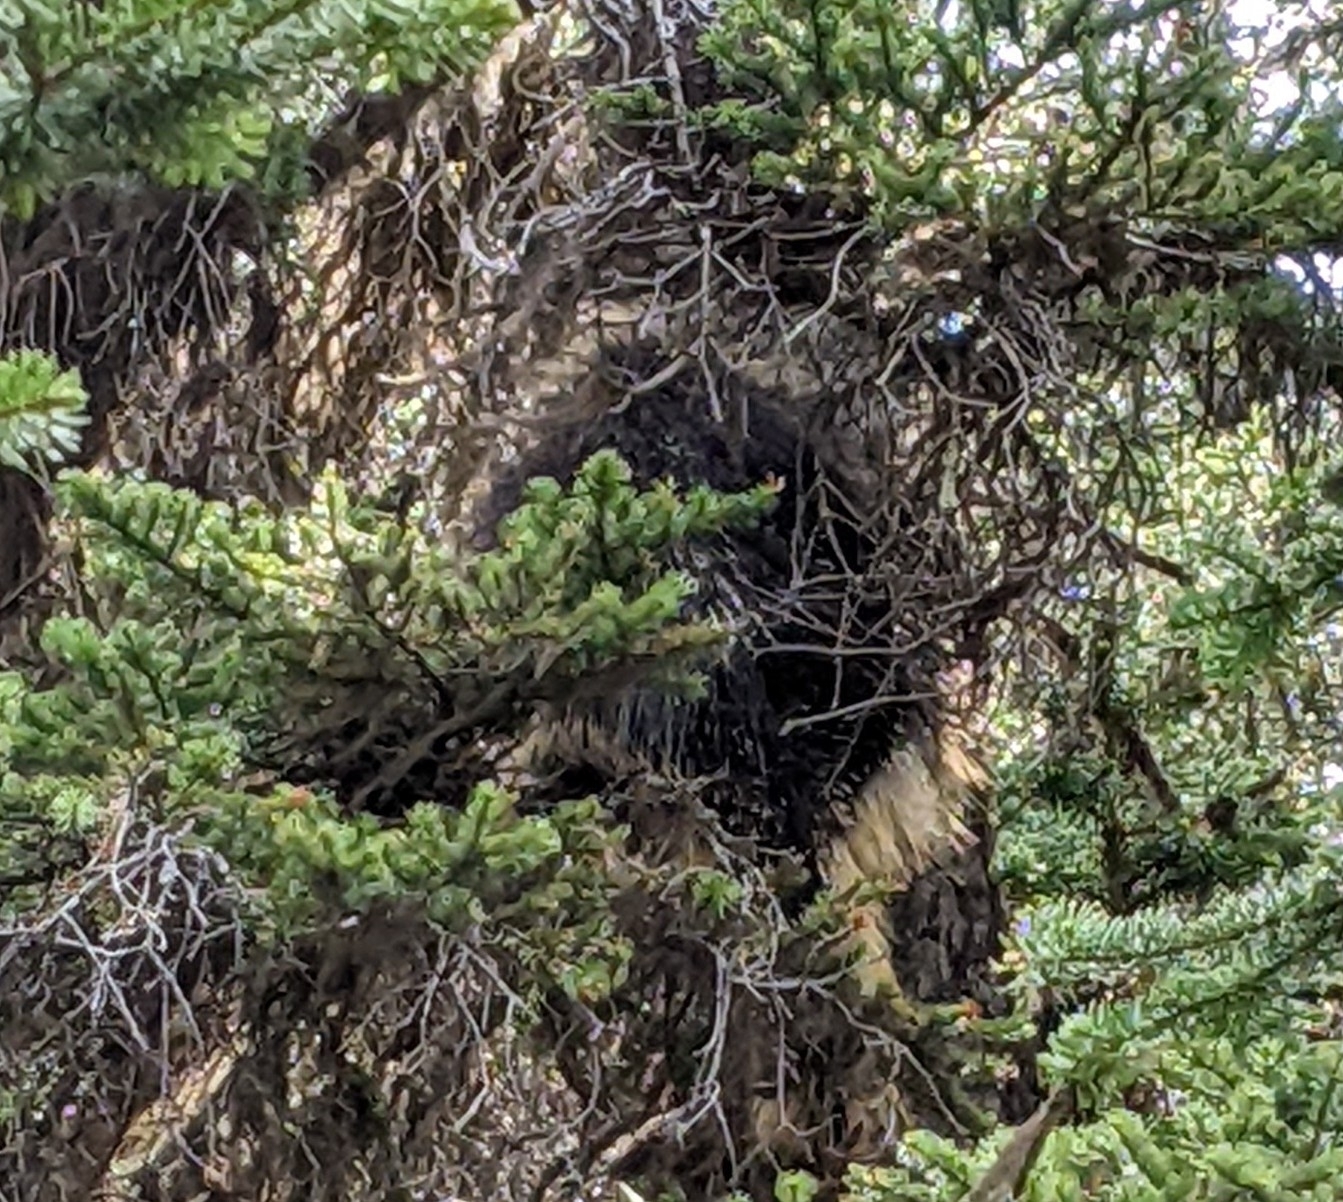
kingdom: Animalia
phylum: Chordata
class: Mammalia
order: Rodentia
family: Erethizontidae
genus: Erethizon
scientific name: Erethizon dorsatus
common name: North american porcupine
